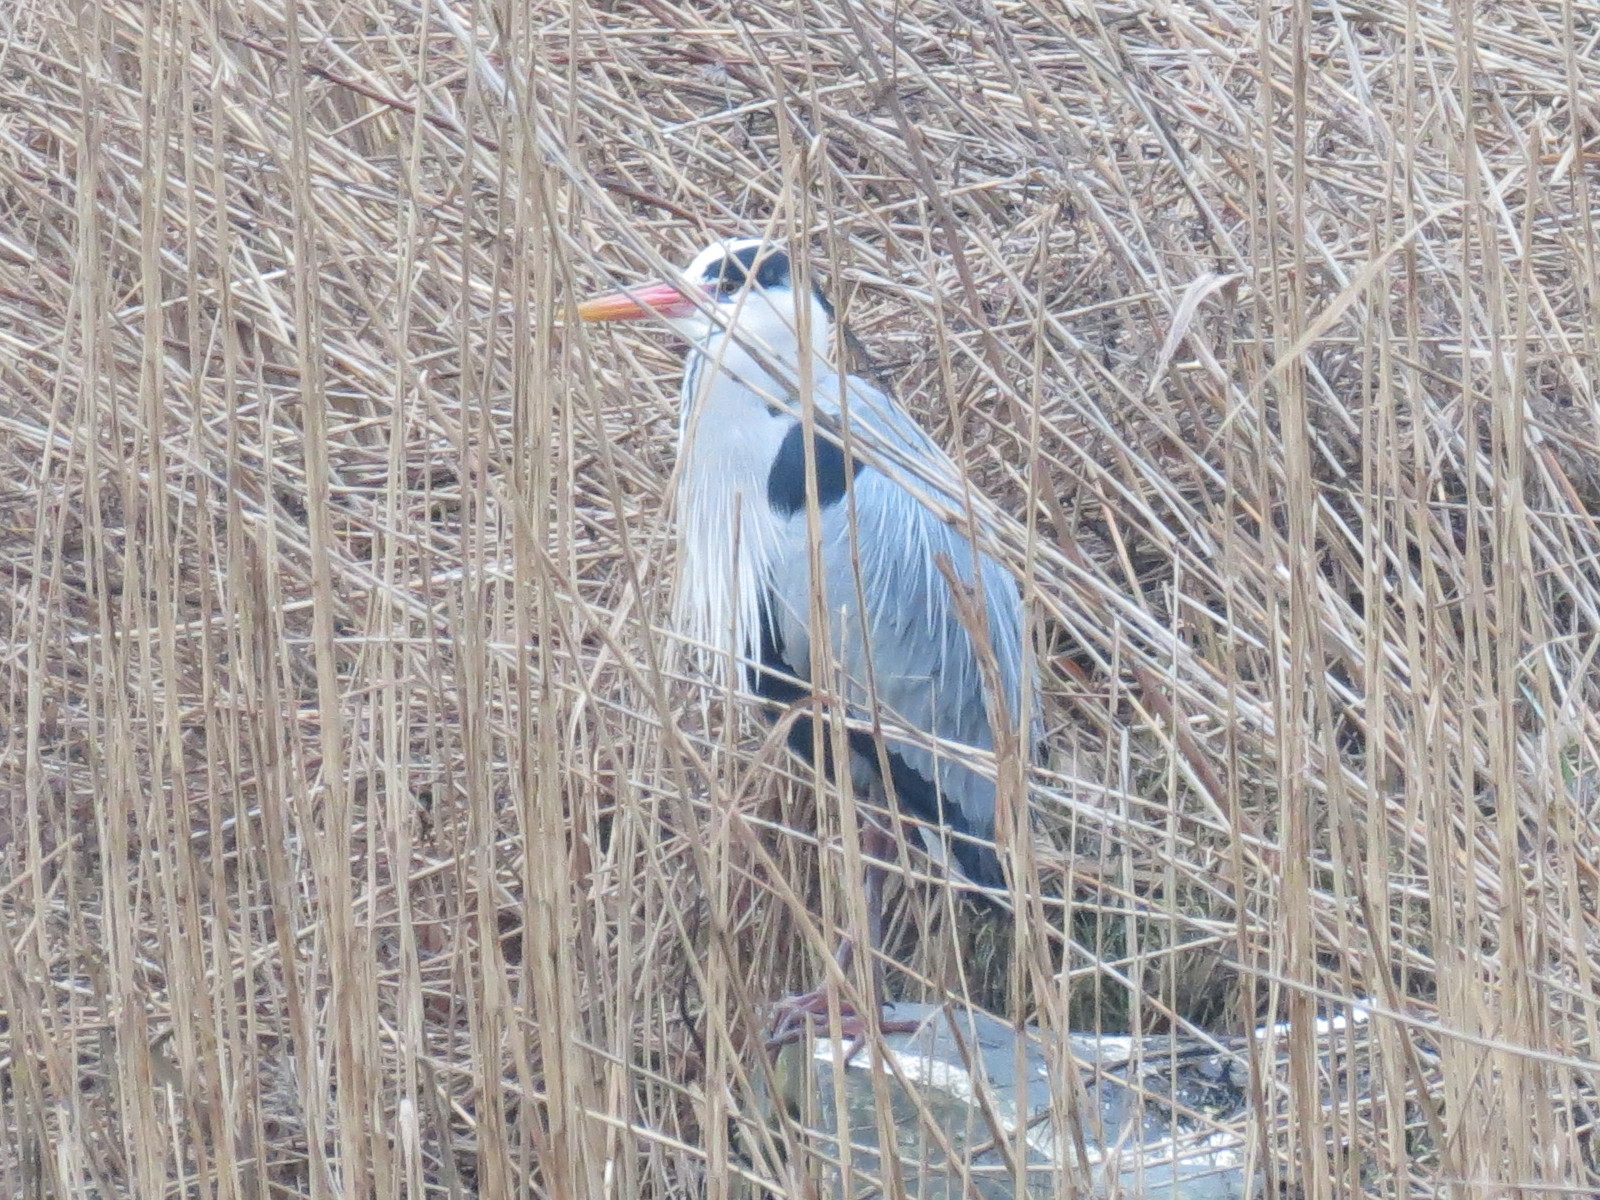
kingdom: Animalia
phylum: Chordata
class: Aves
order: Pelecaniformes
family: Ardeidae
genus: Ardea
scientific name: Ardea cinerea
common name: Grey heron
